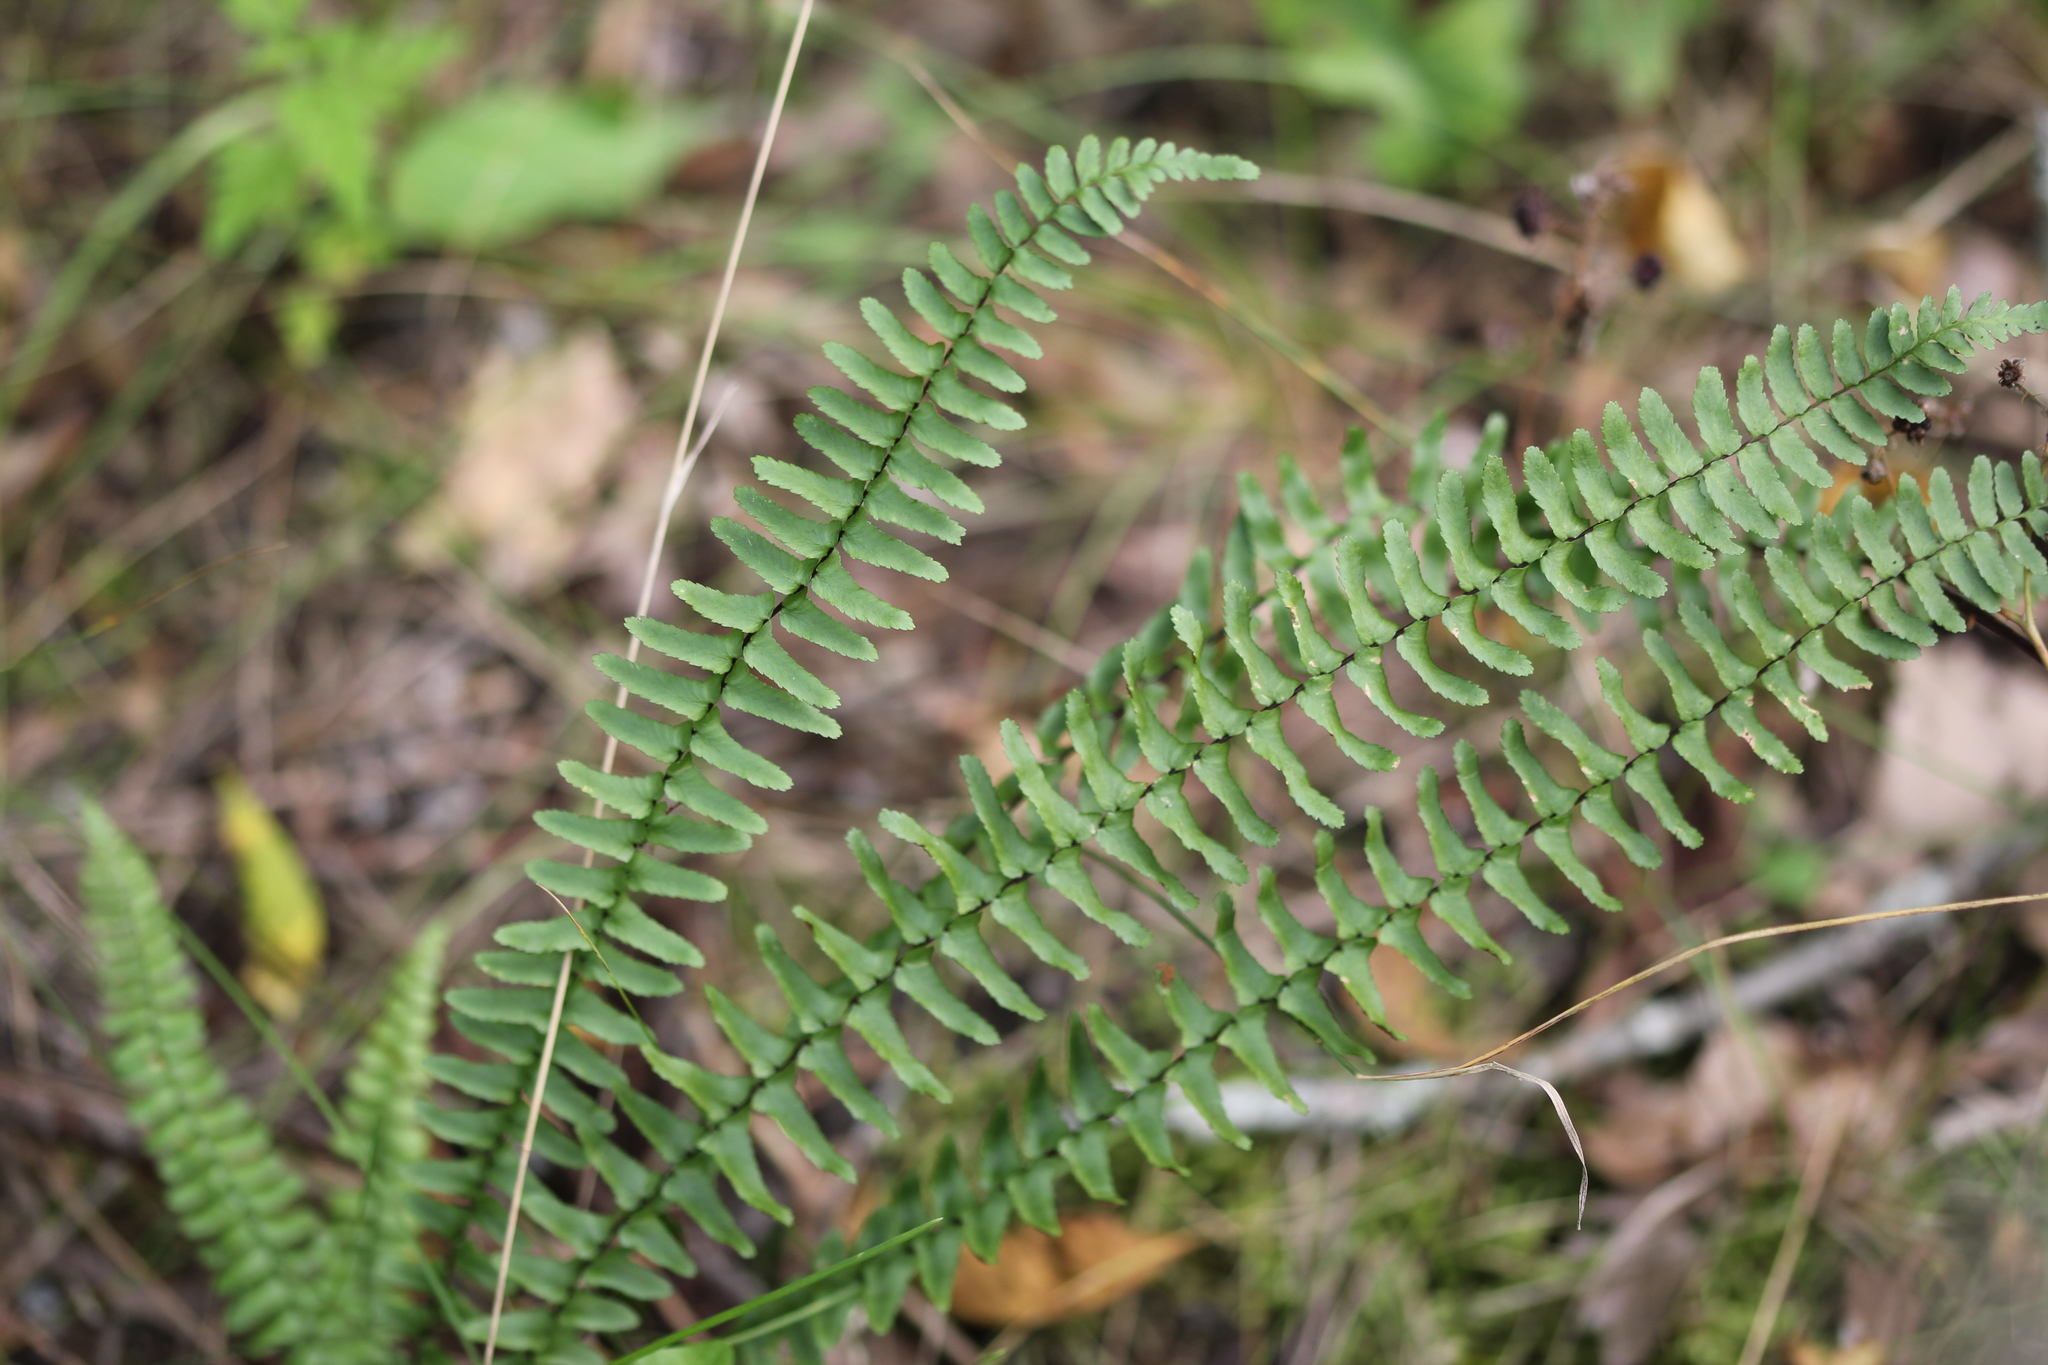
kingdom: Plantae
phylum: Tracheophyta
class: Polypodiopsida
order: Polypodiales
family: Aspleniaceae
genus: Asplenium
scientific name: Asplenium platyneuron
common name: Ebony spleenwort
